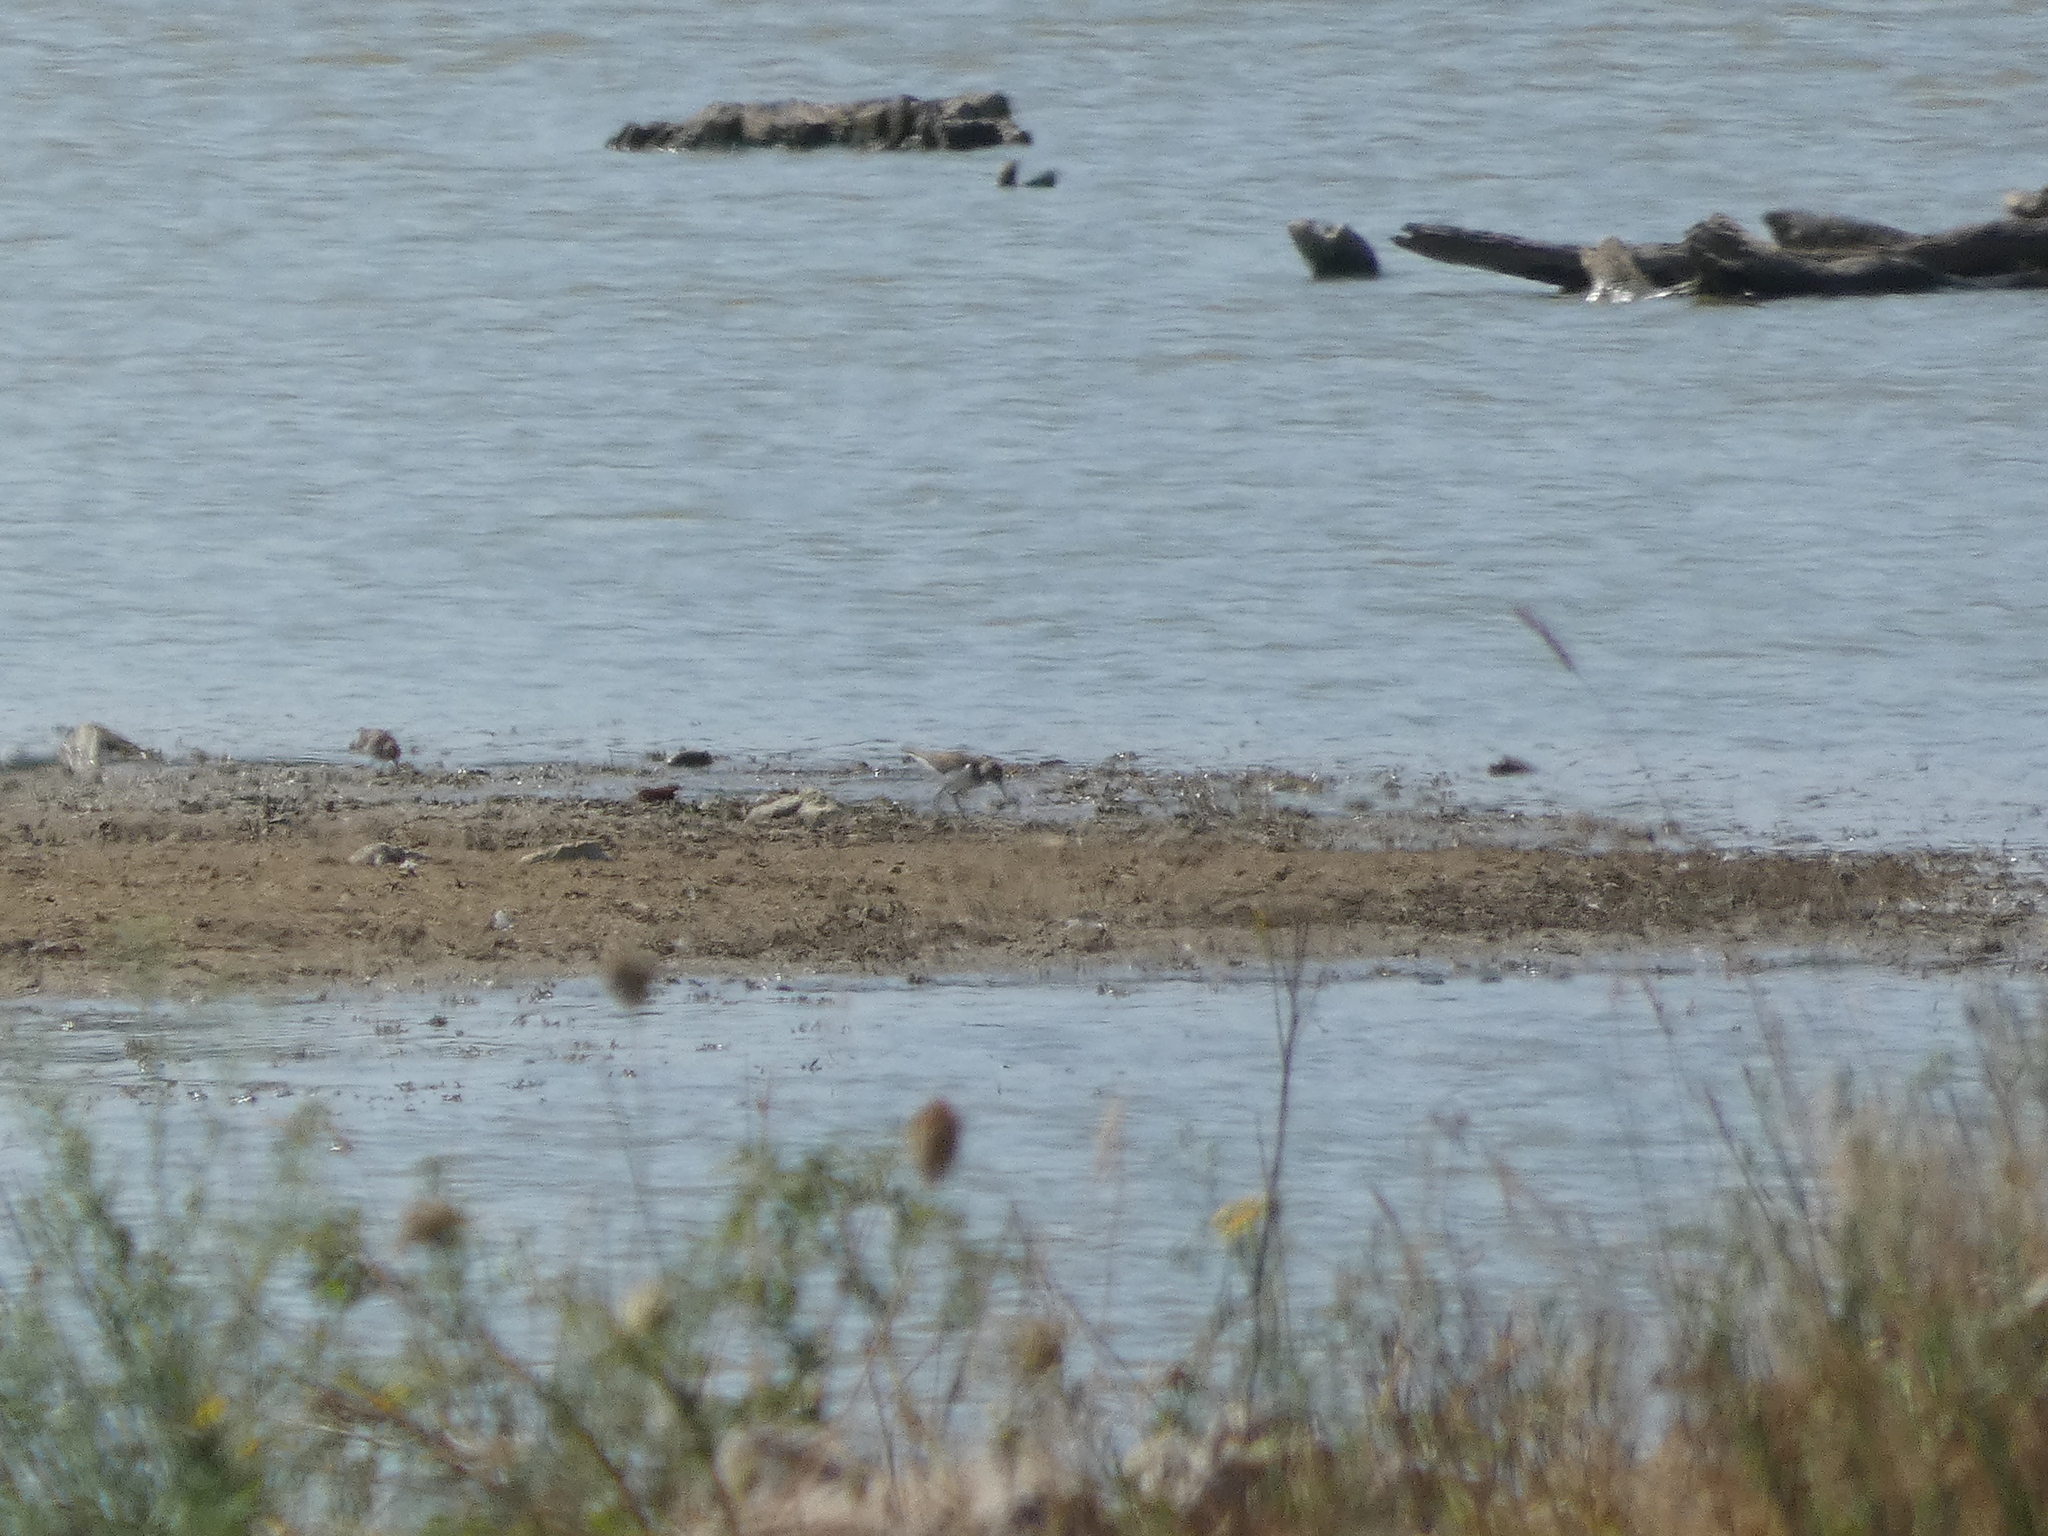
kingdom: Animalia
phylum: Chordata
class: Aves
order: Charadriiformes
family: Scolopacidae
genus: Actitis
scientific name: Actitis hypoleucos
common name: Common sandpiper
